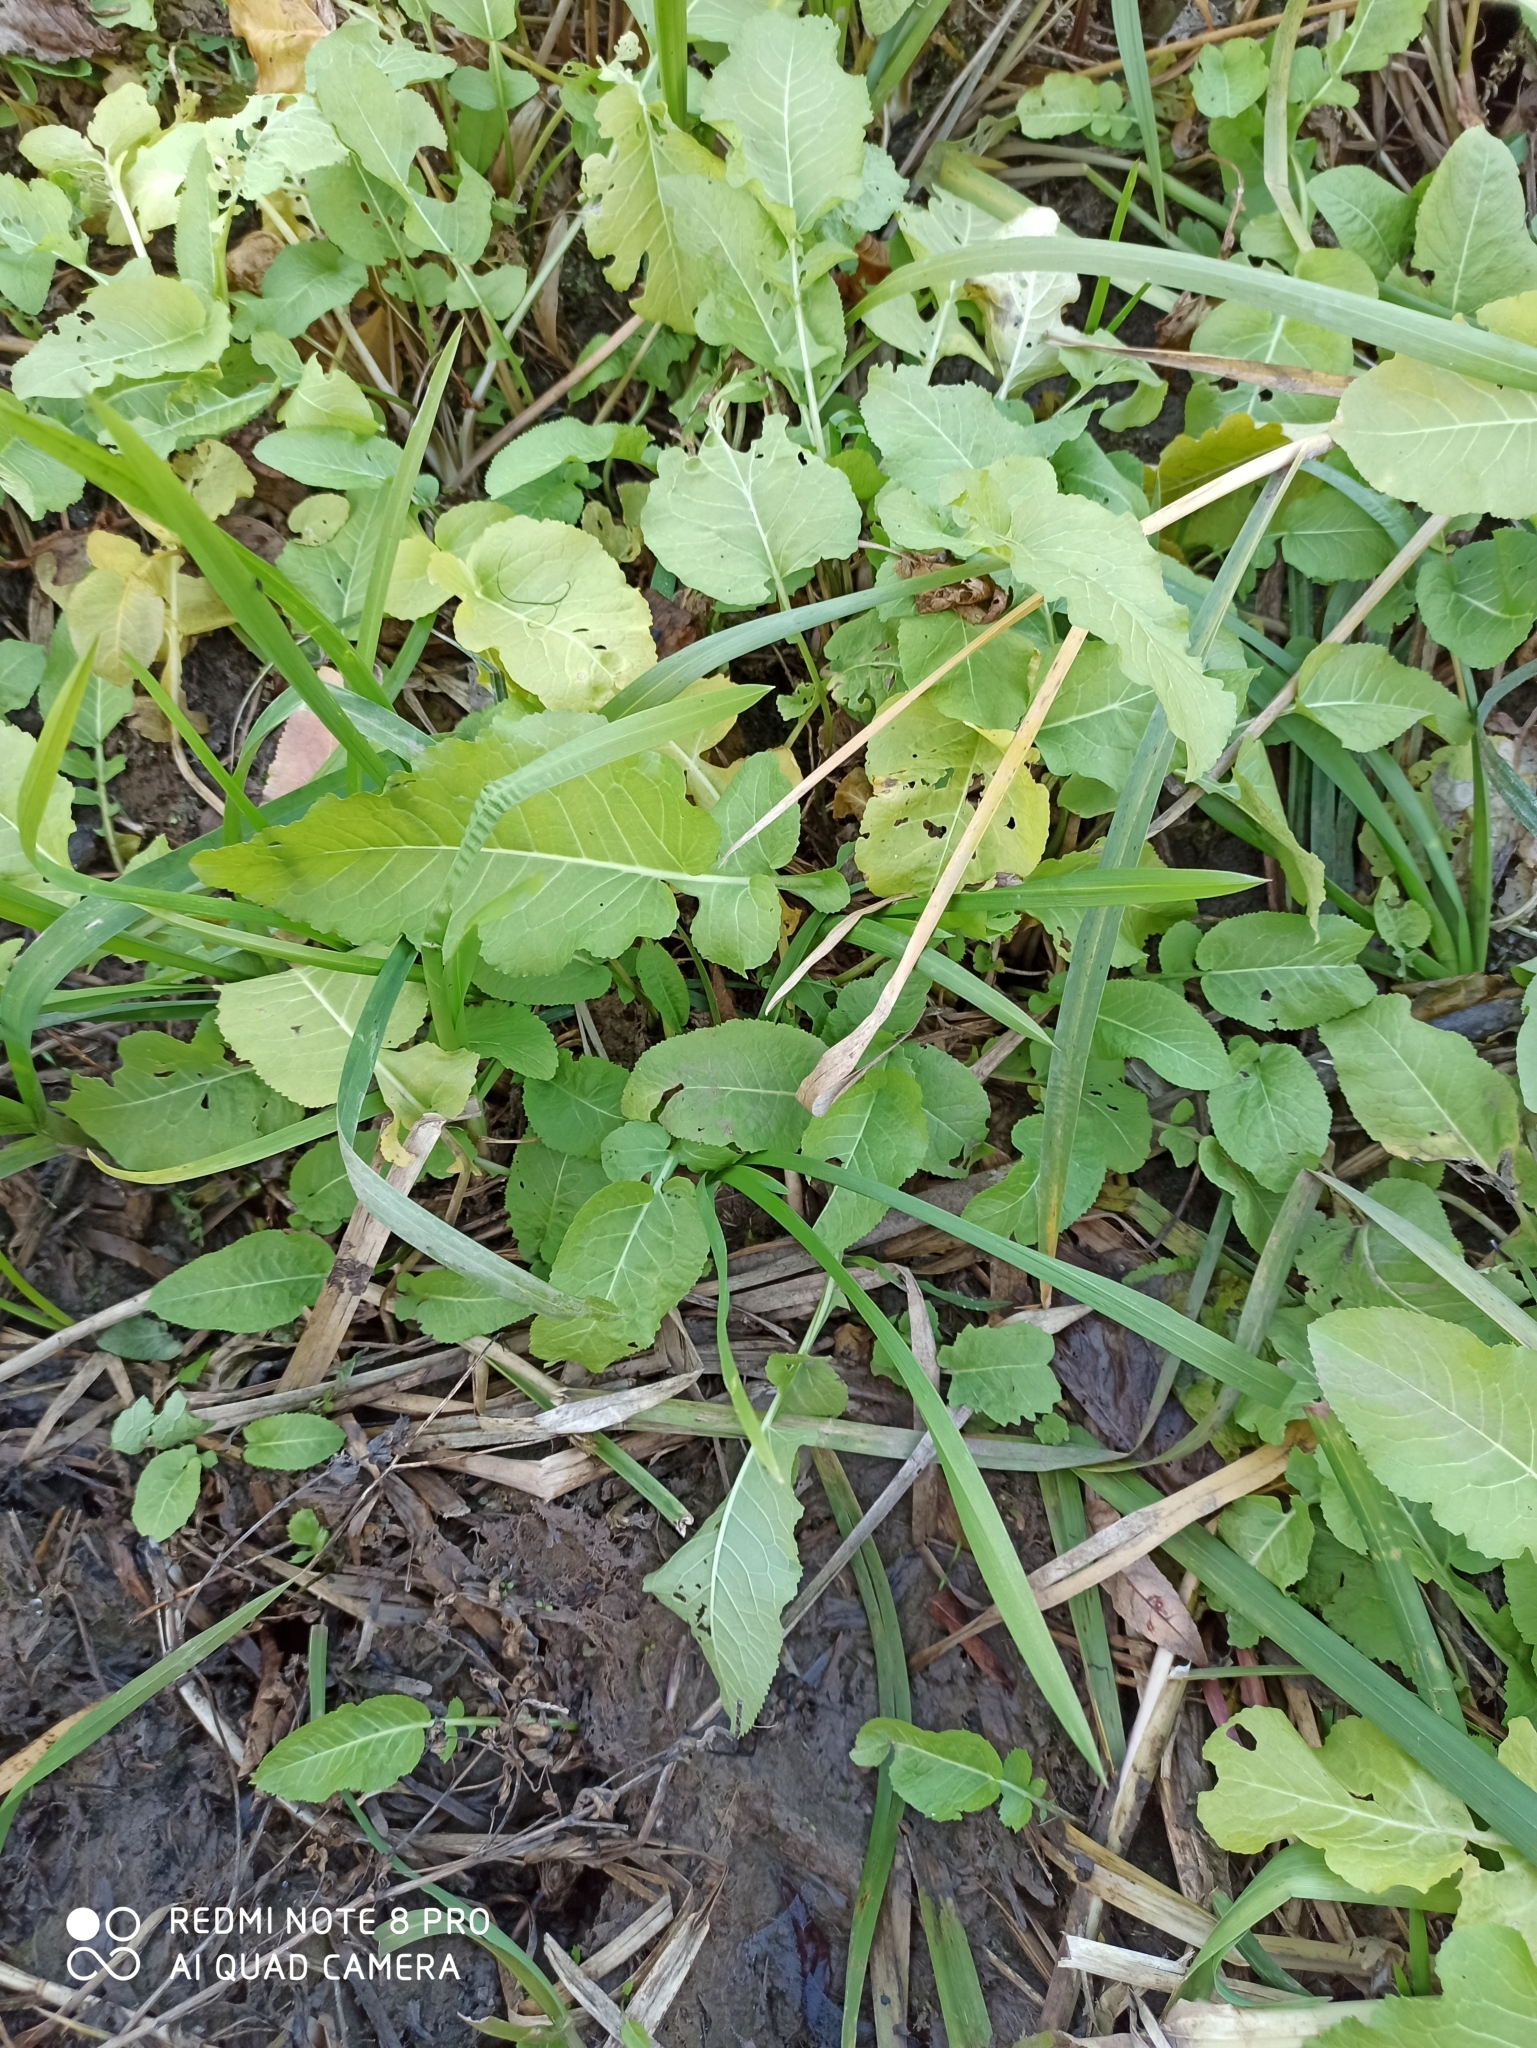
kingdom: Plantae
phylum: Tracheophyta
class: Magnoliopsida
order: Brassicales
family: Brassicaceae
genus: Rorippa
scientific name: Rorippa amphibia
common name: Great yellow-cress
